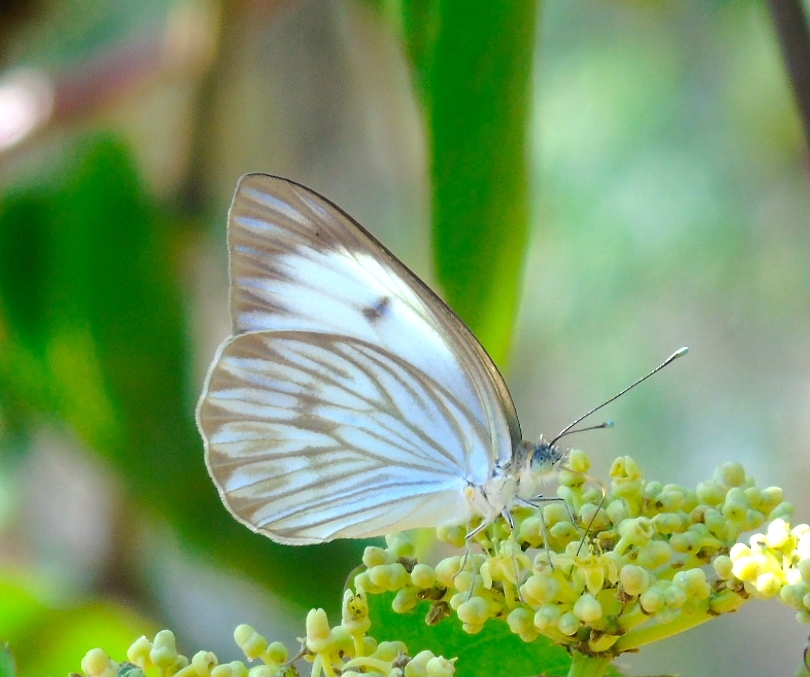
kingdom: Animalia
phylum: Arthropoda
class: Insecta
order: Lepidoptera
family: Pieridae
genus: Ascia
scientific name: Ascia monuste
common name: Great southern white
